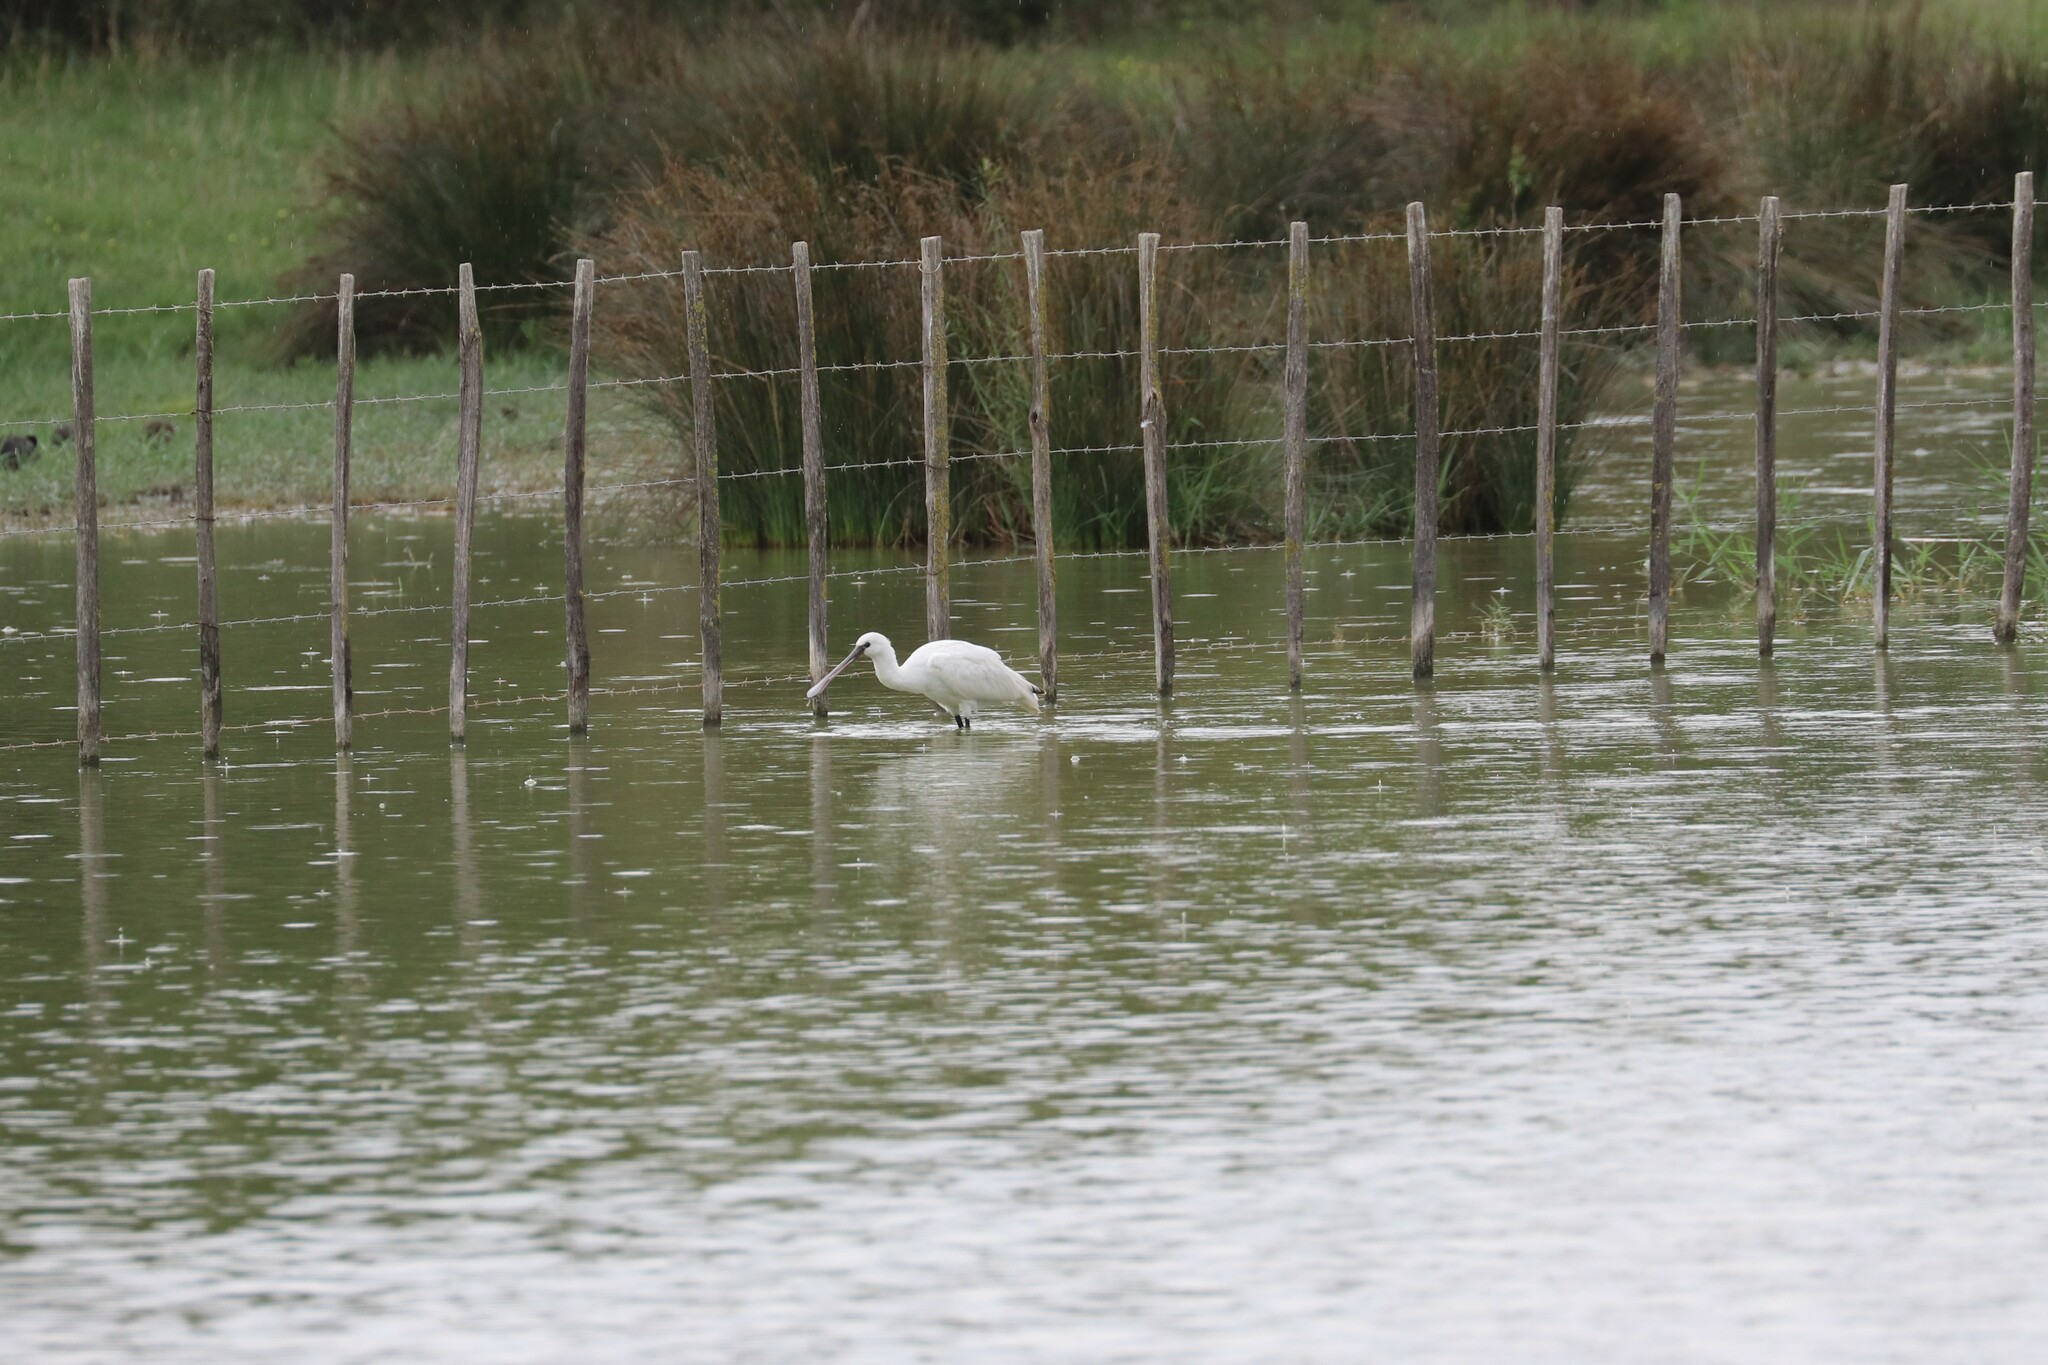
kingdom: Animalia
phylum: Chordata
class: Aves
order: Pelecaniformes
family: Threskiornithidae
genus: Platalea
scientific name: Platalea leucorodia
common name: Eurasian spoonbill
